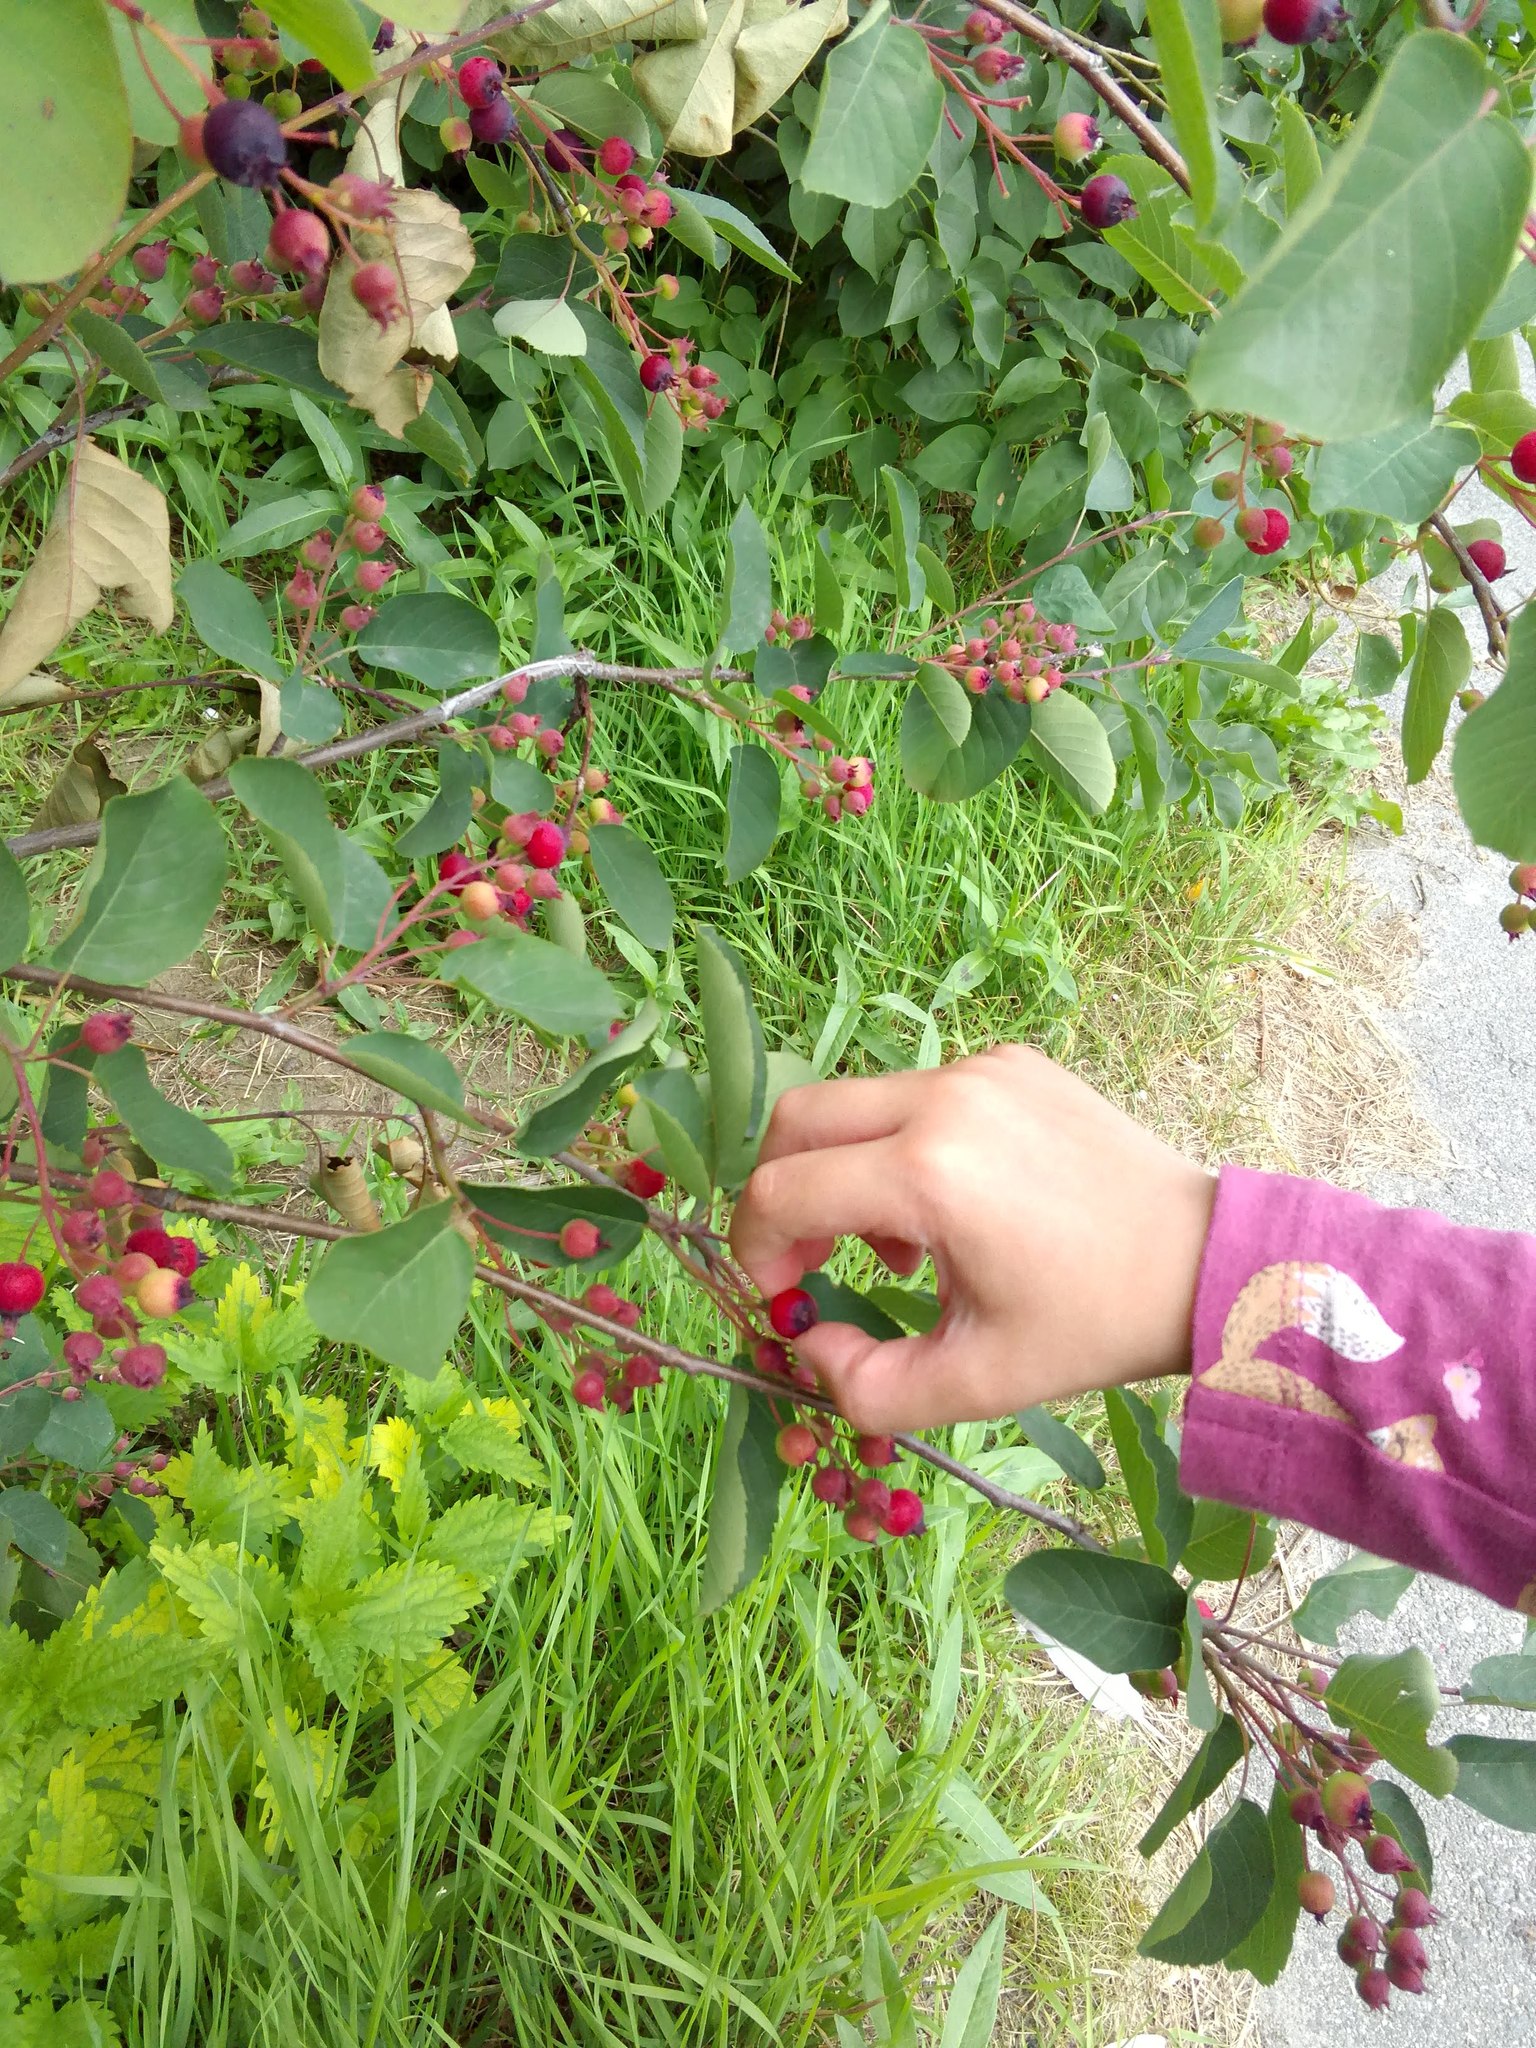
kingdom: Plantae
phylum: Tracheophyta
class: Magnoliopsida
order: Rosales
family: Rosaceae
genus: Amelanchier
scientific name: Amelanchier
